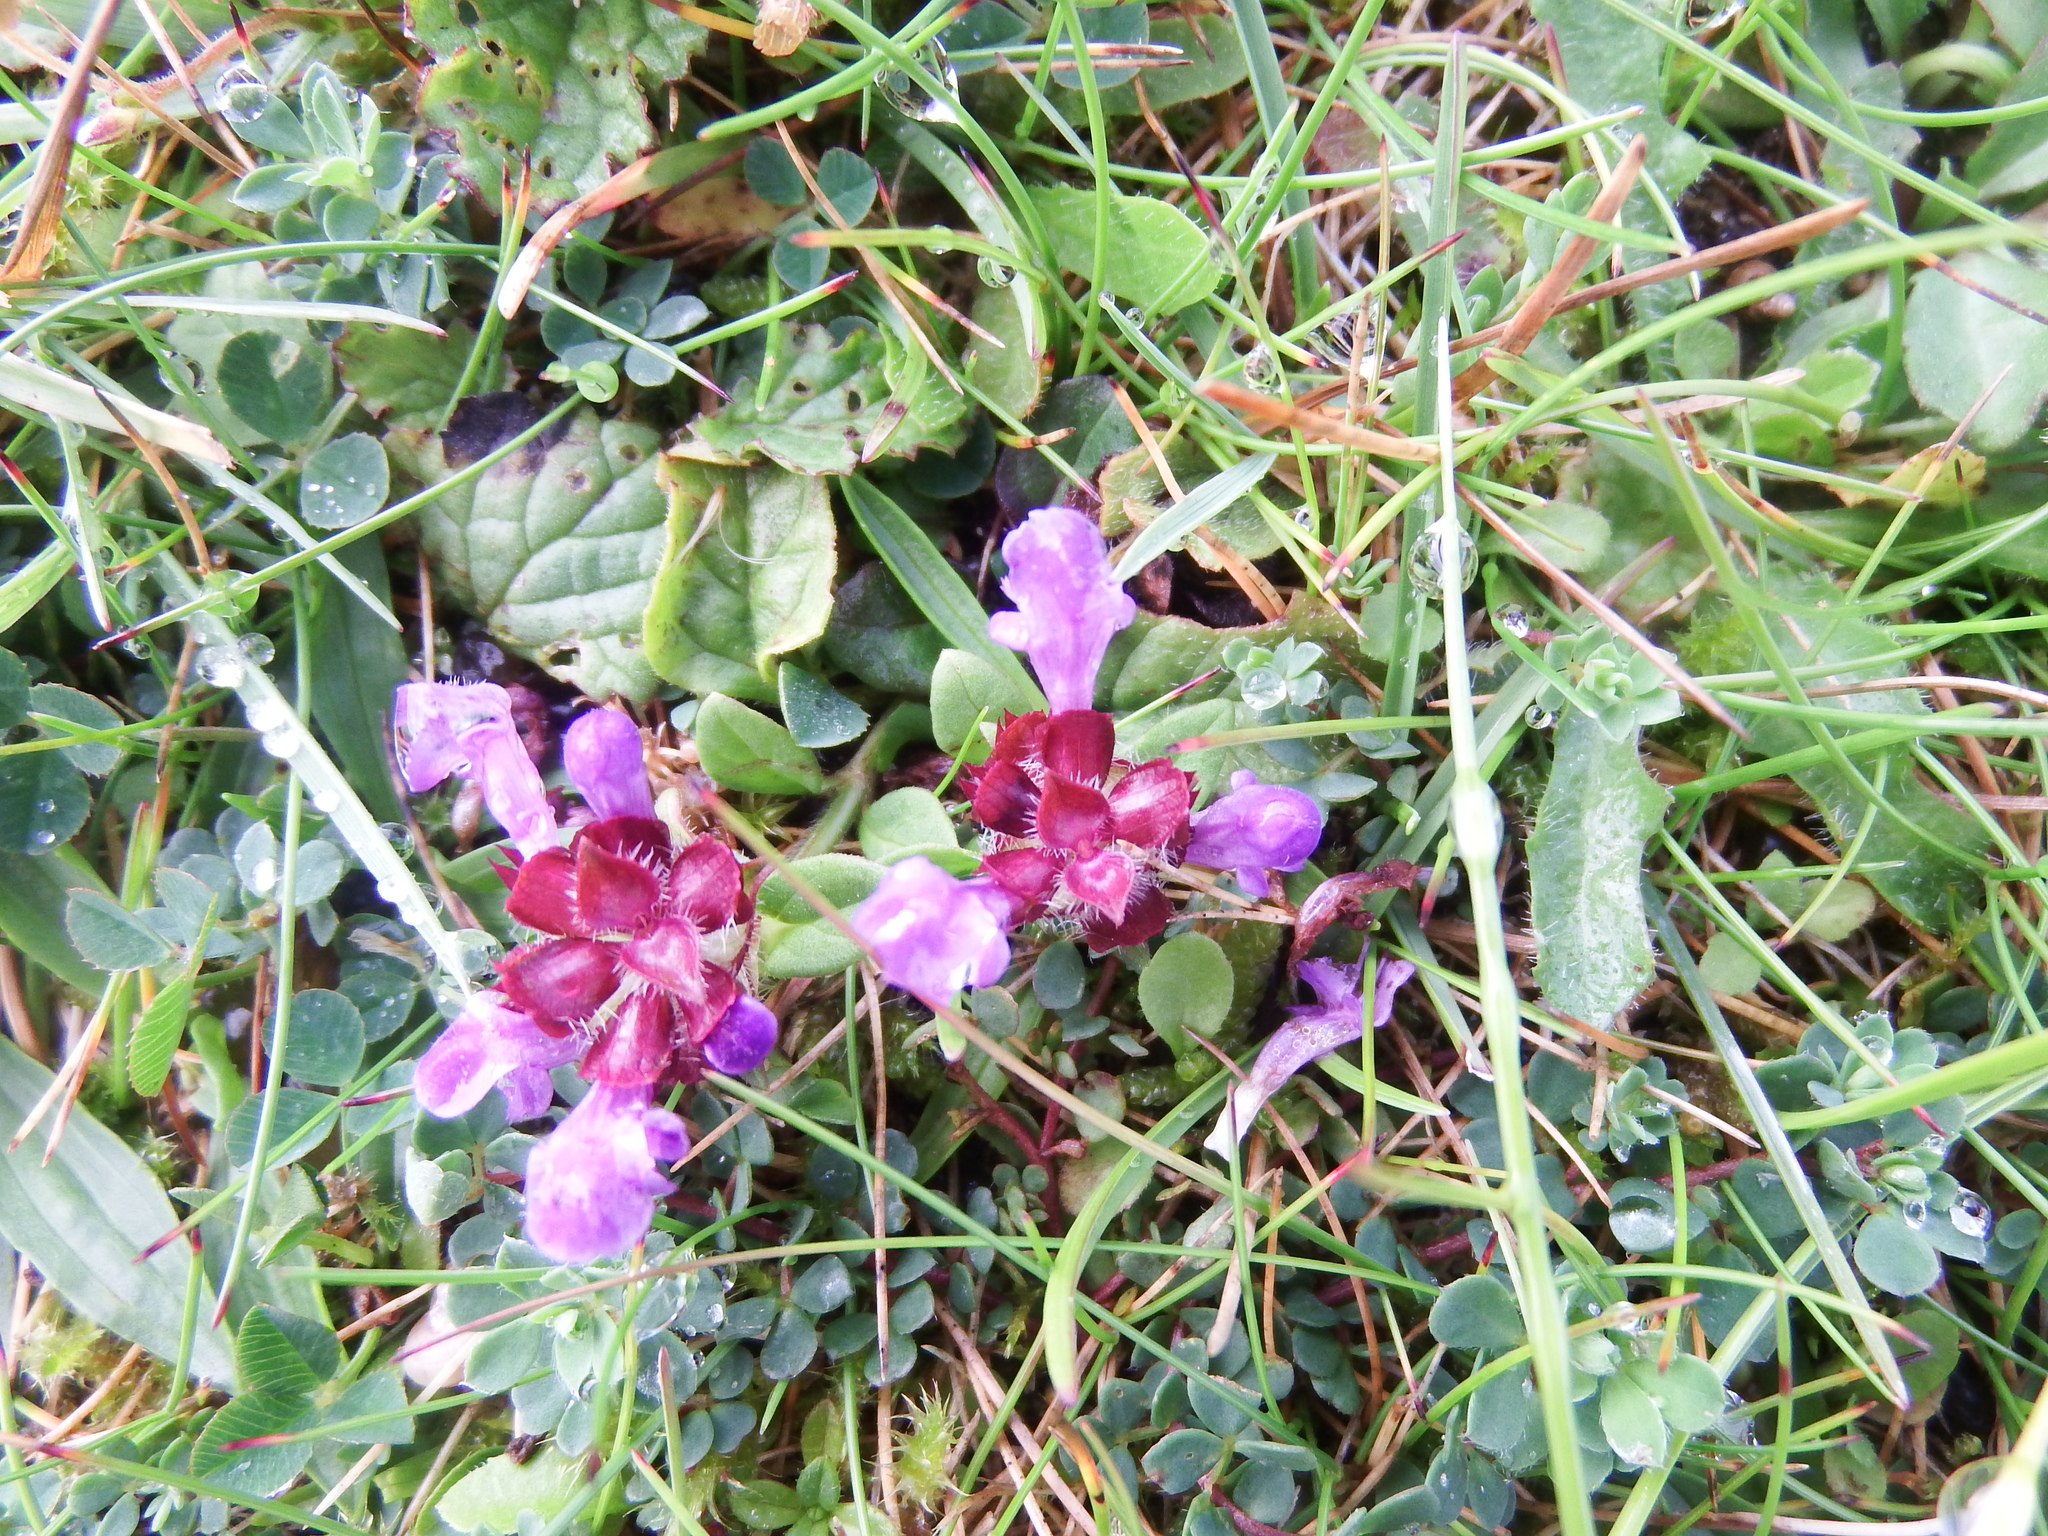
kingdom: Plantae
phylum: Tracheophyta
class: Magnoliopsida
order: Lamiales
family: Lamiaceae
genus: Prunella
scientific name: Prunella vulgaris
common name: Heal-all
